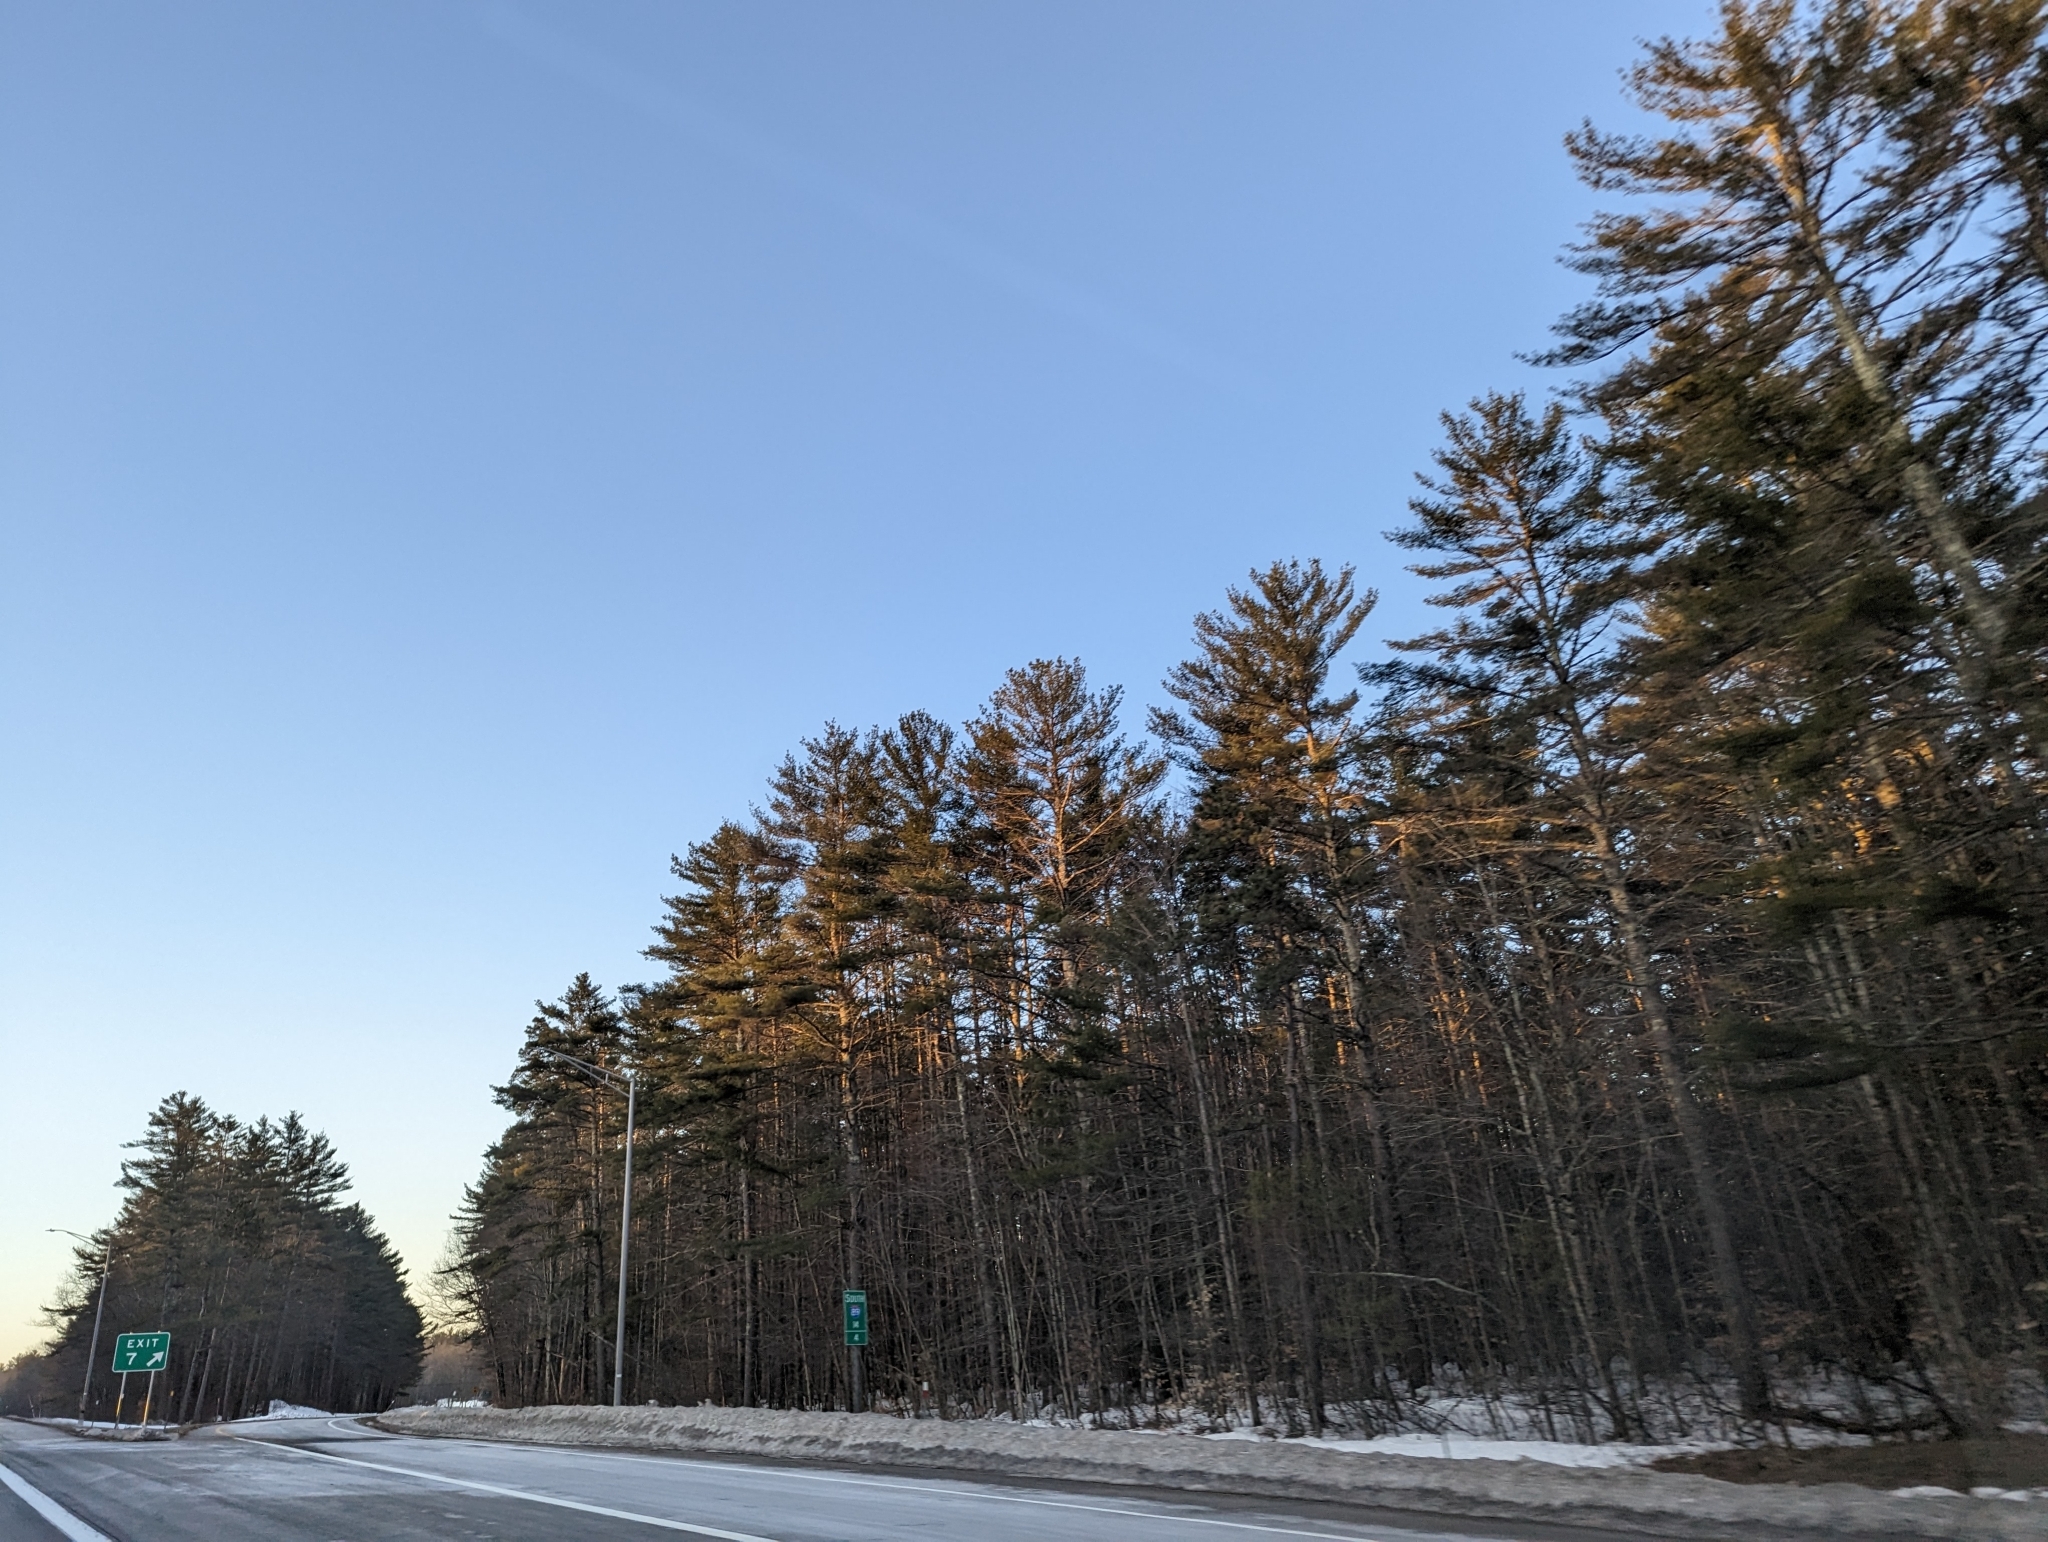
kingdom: Plantae
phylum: Tracheophyta
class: Pinopsida
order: Pinales
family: Pinaceae
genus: Pinus
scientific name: Pinus strobus
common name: Weymouth pine
